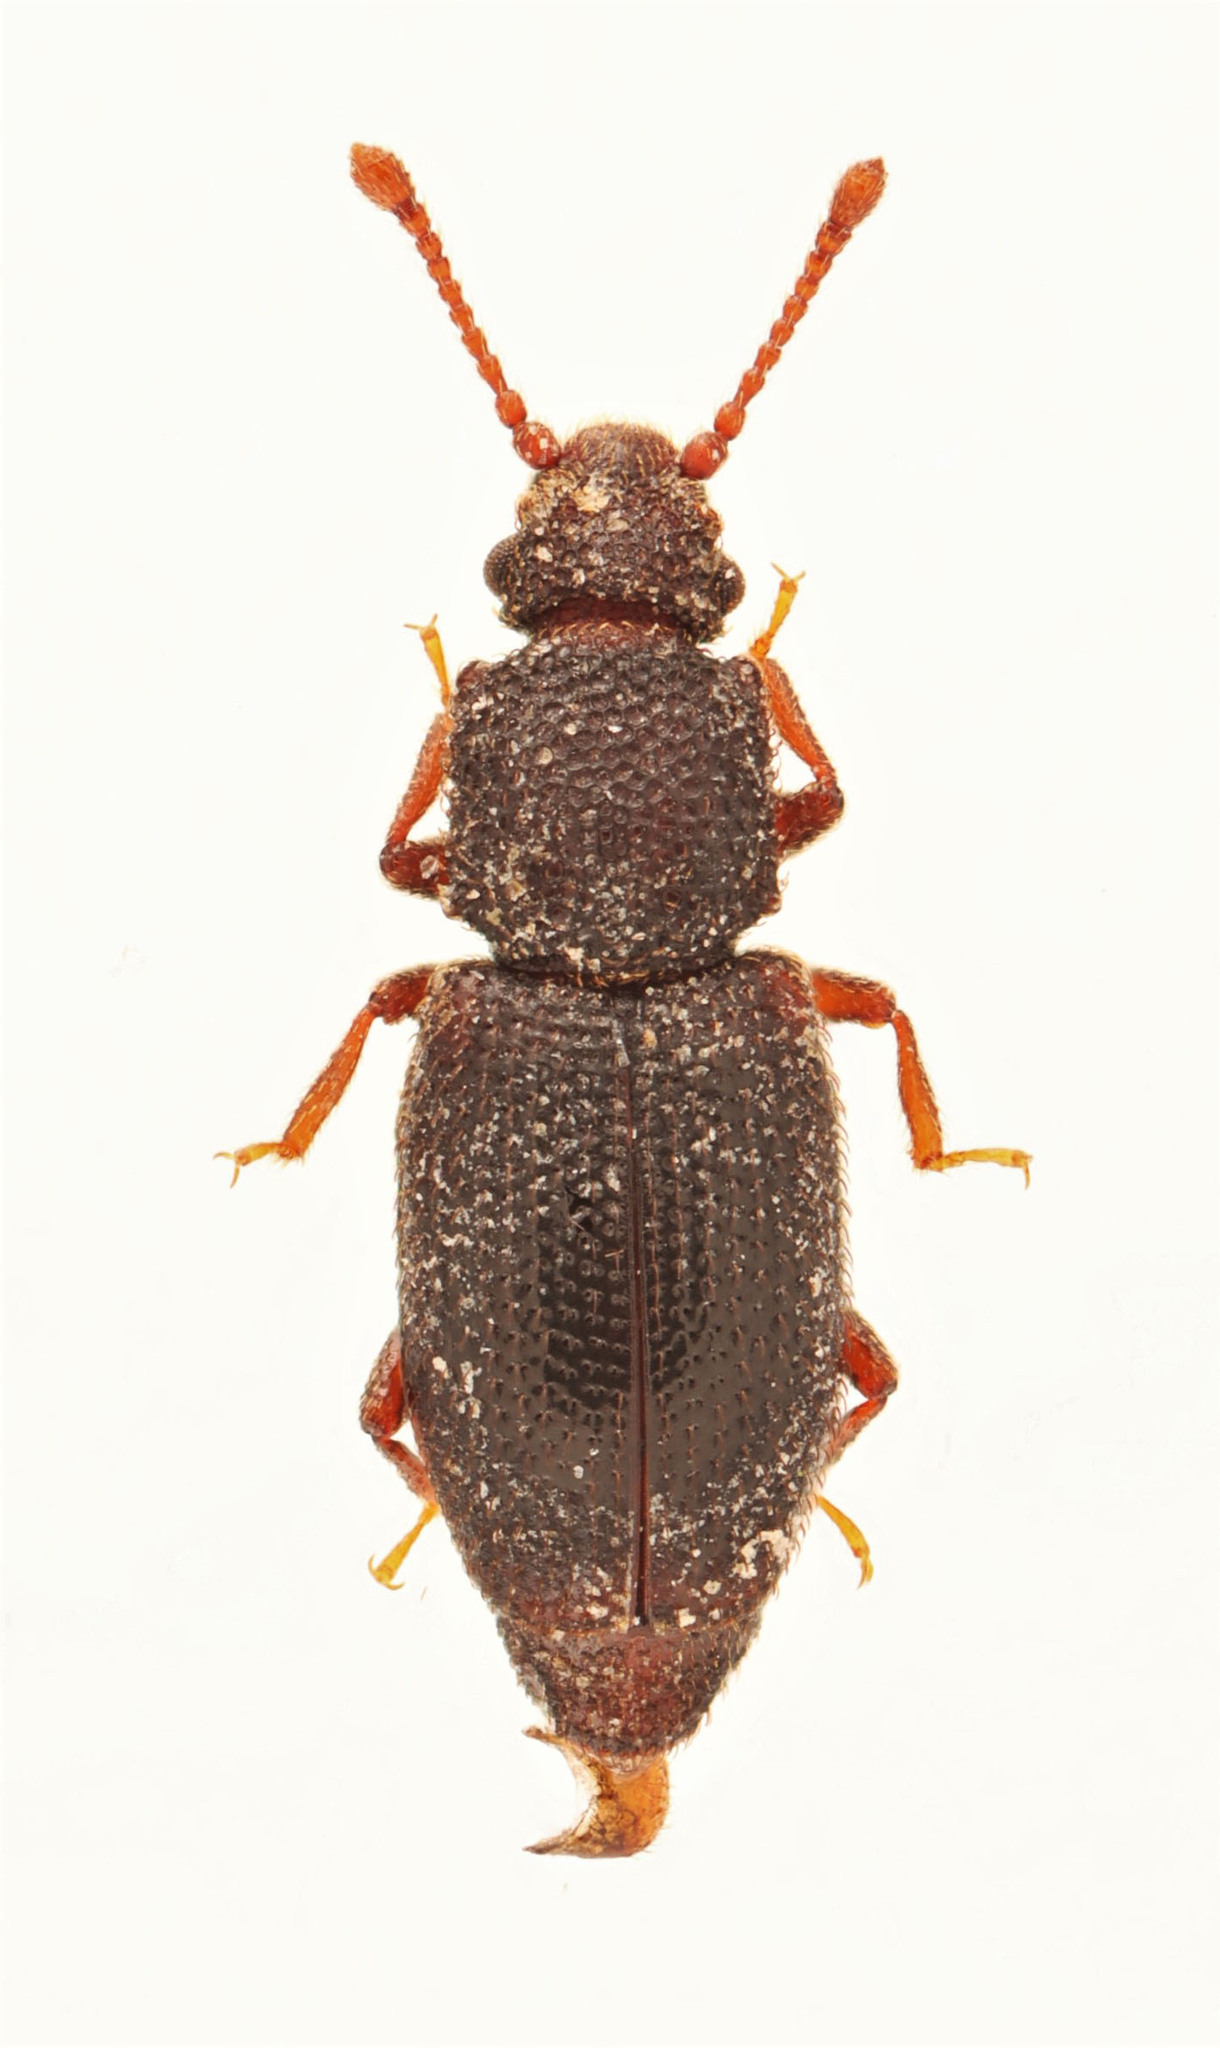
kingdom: Animalia
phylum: Arthropoda
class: Insecta
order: Coleoptera
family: Monotomidae
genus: Monotoma
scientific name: Monotoma americana
